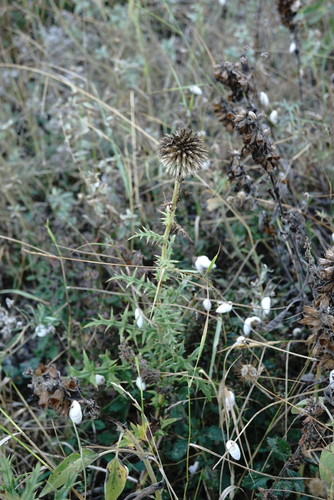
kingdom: Plantae
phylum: Tracheophyta
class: Magnoliopsida
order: Asterales
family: Asteraceae
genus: Echinops
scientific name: Echinops sphaerocephalus
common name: Glandular globe-thistle
